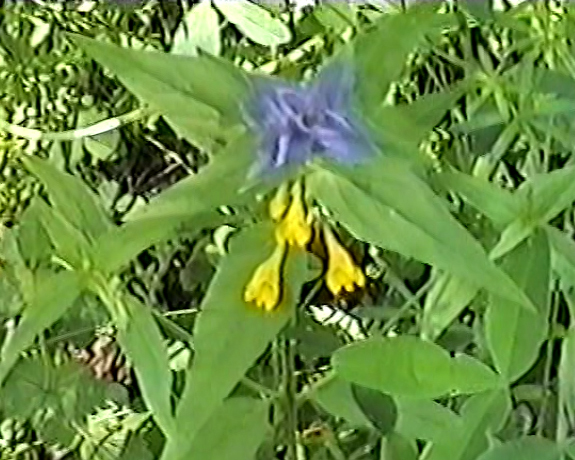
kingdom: Plantae
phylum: Tracheophyta
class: Magnoliopsida
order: Lamiales
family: Orobanchaceae
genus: Melampyrum
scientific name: Melampyrum nemorosum
